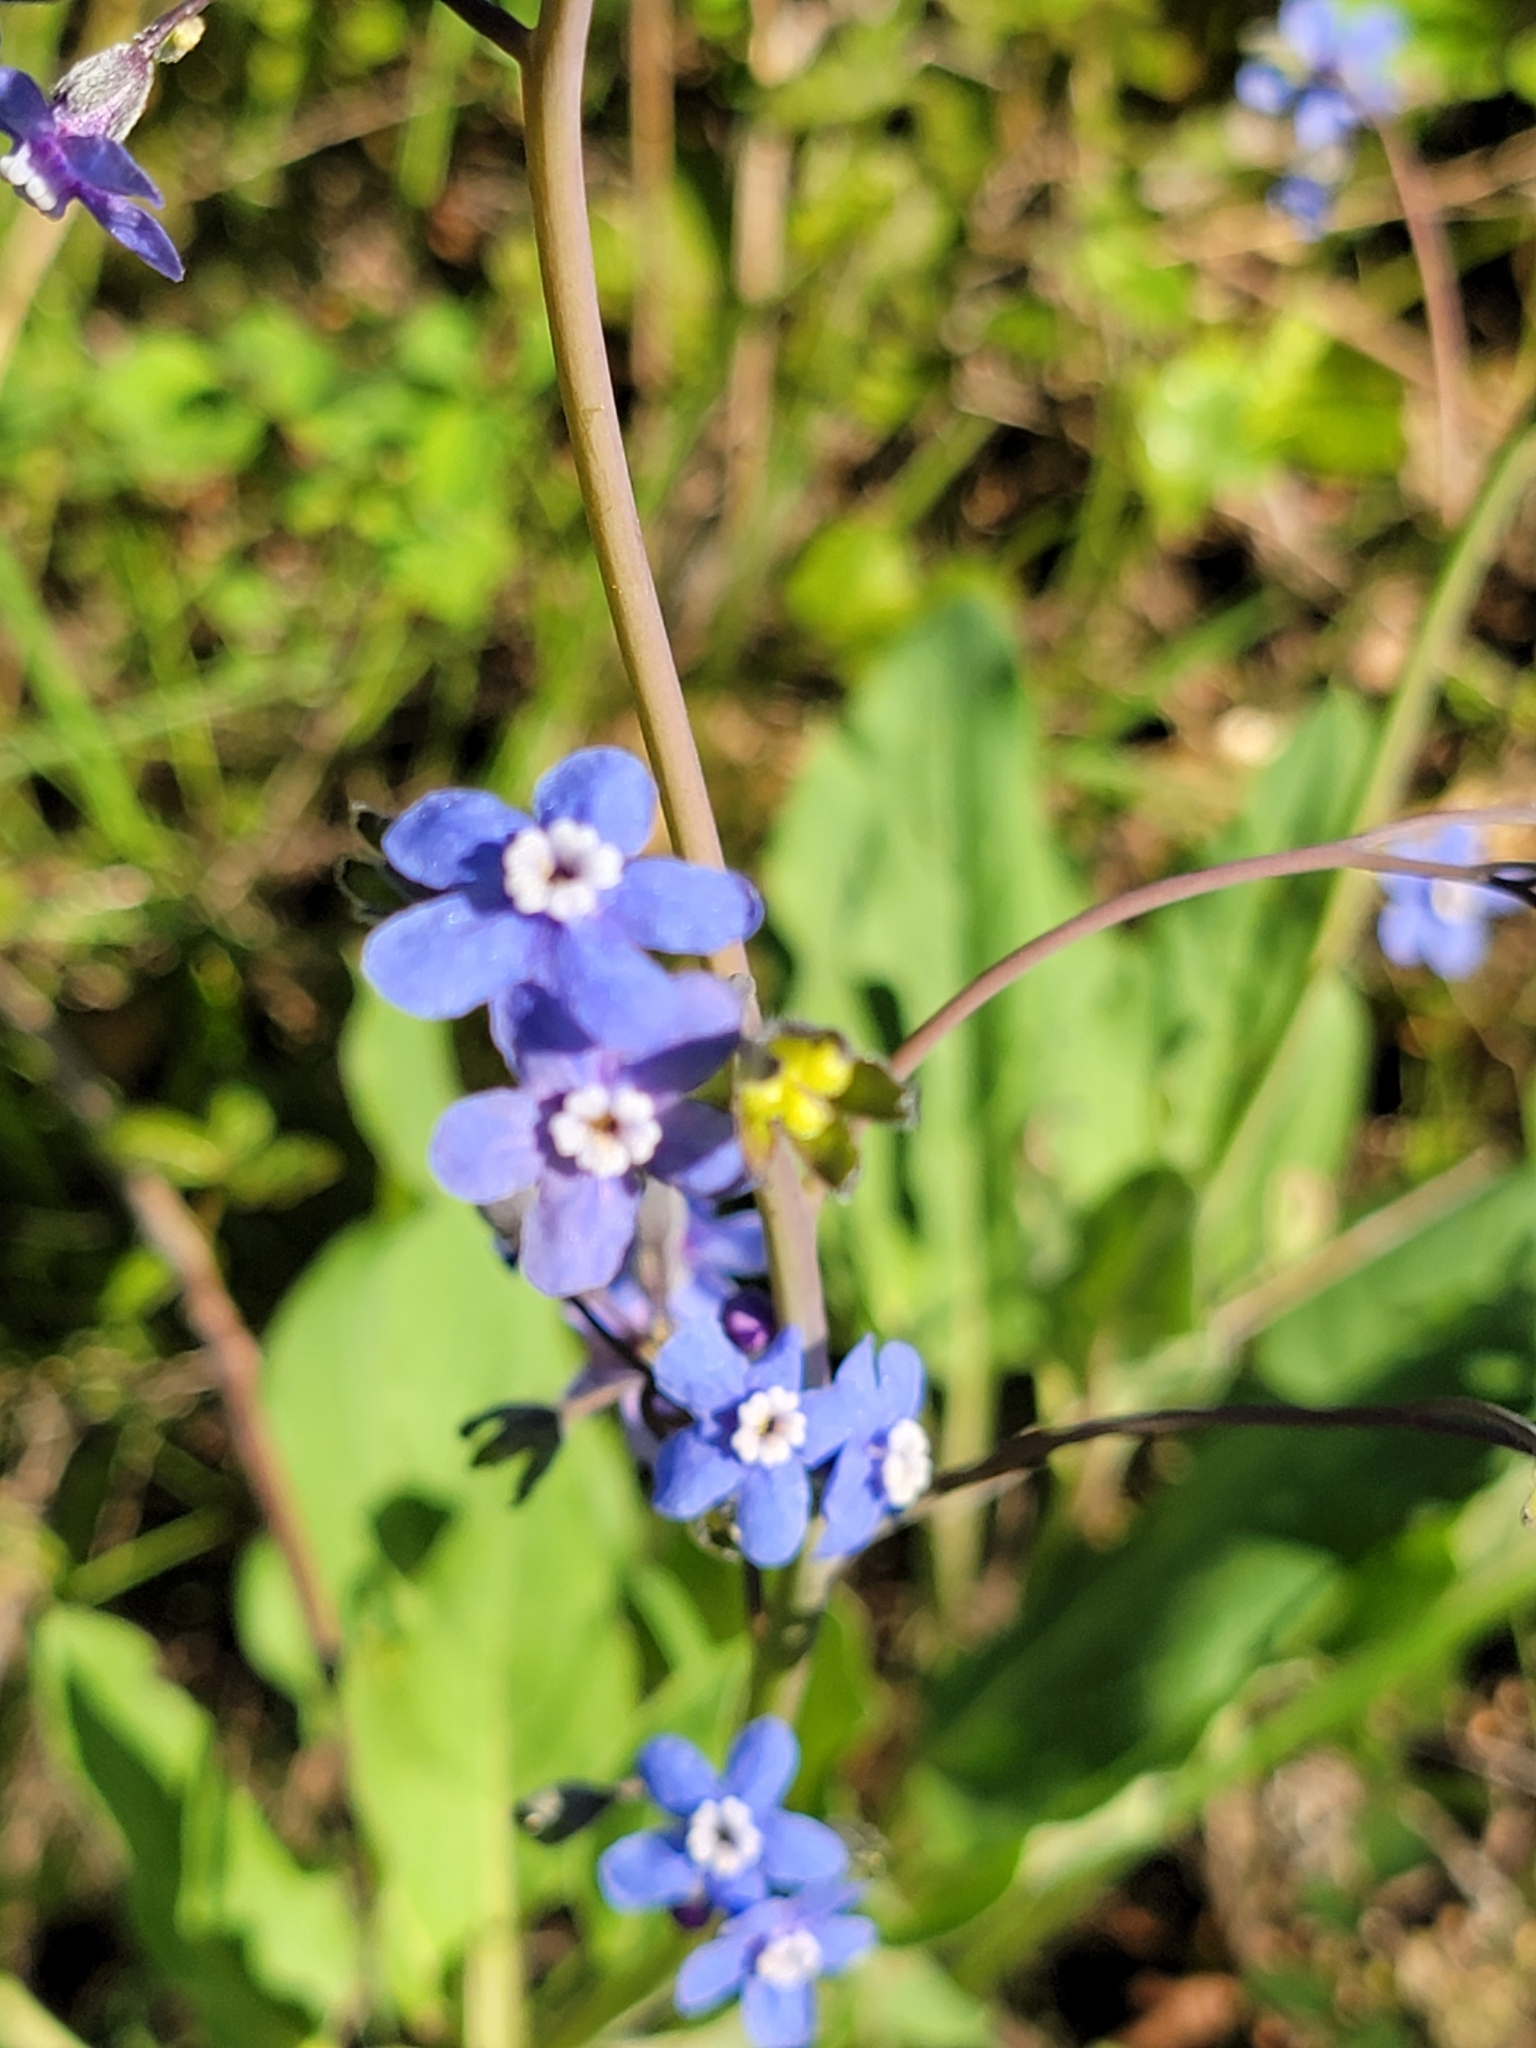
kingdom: Plantae
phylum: Tracheophyta
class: Magnoliopsida
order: Boraginales
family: Boraginaceae
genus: Adelinia
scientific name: Adelinia grande
